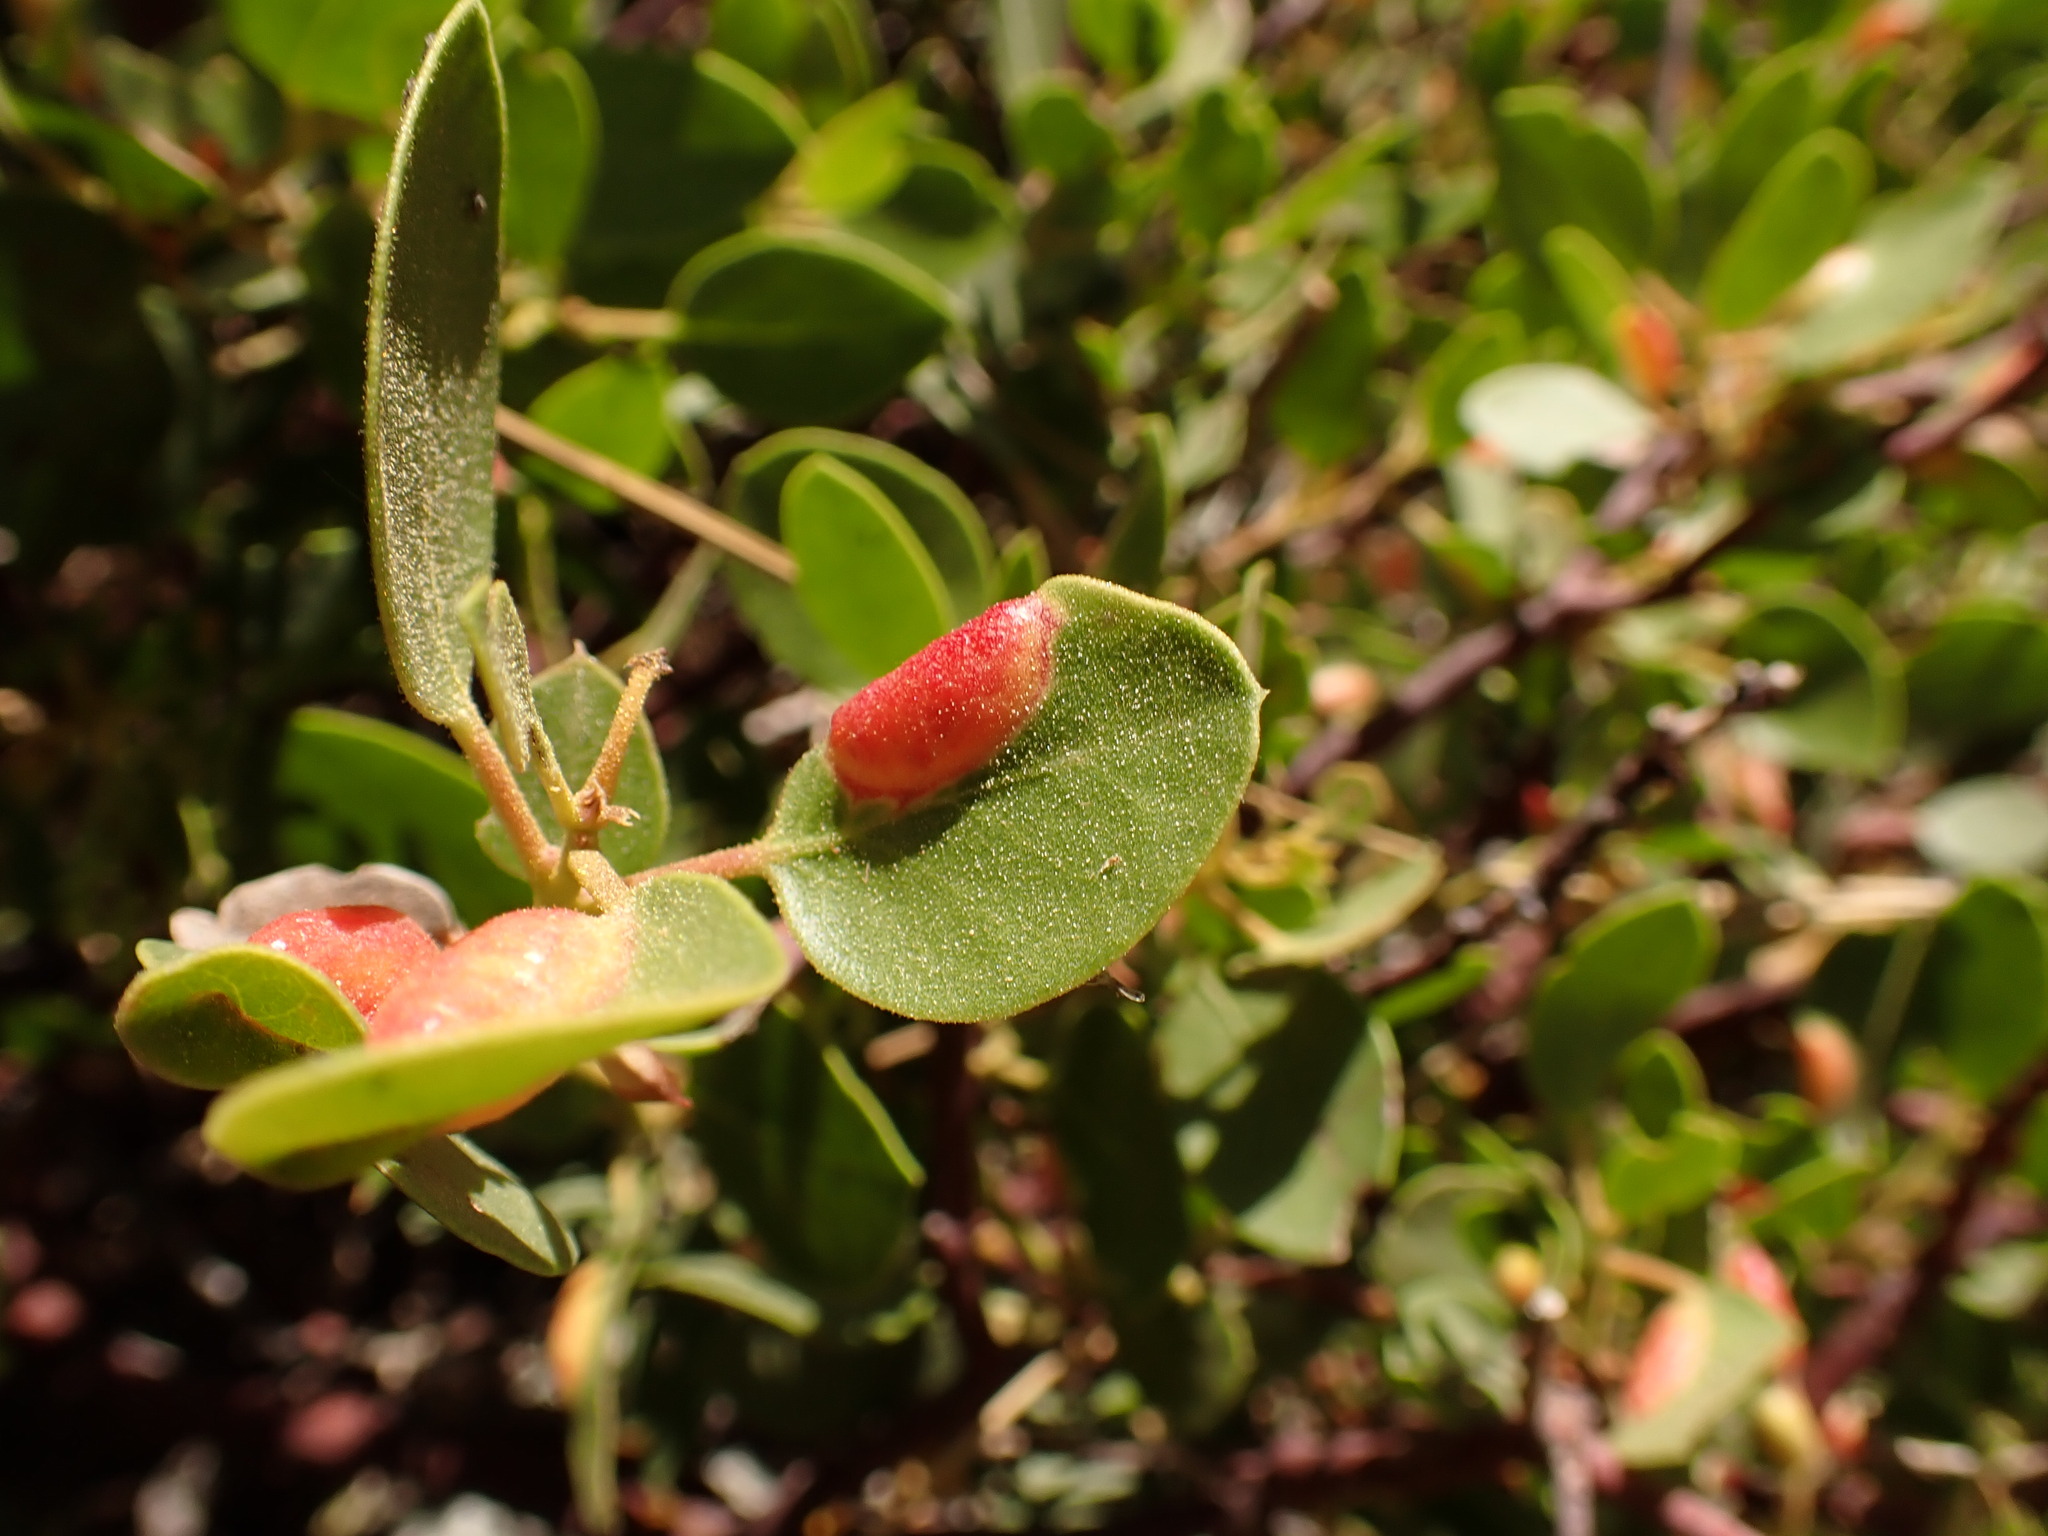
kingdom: Animalia
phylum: Arthropoda
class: Insecta
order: Hemiptera
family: Aphididae
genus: Tamalia
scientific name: Tamalia coweni
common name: Manzanita leafgall aphid
